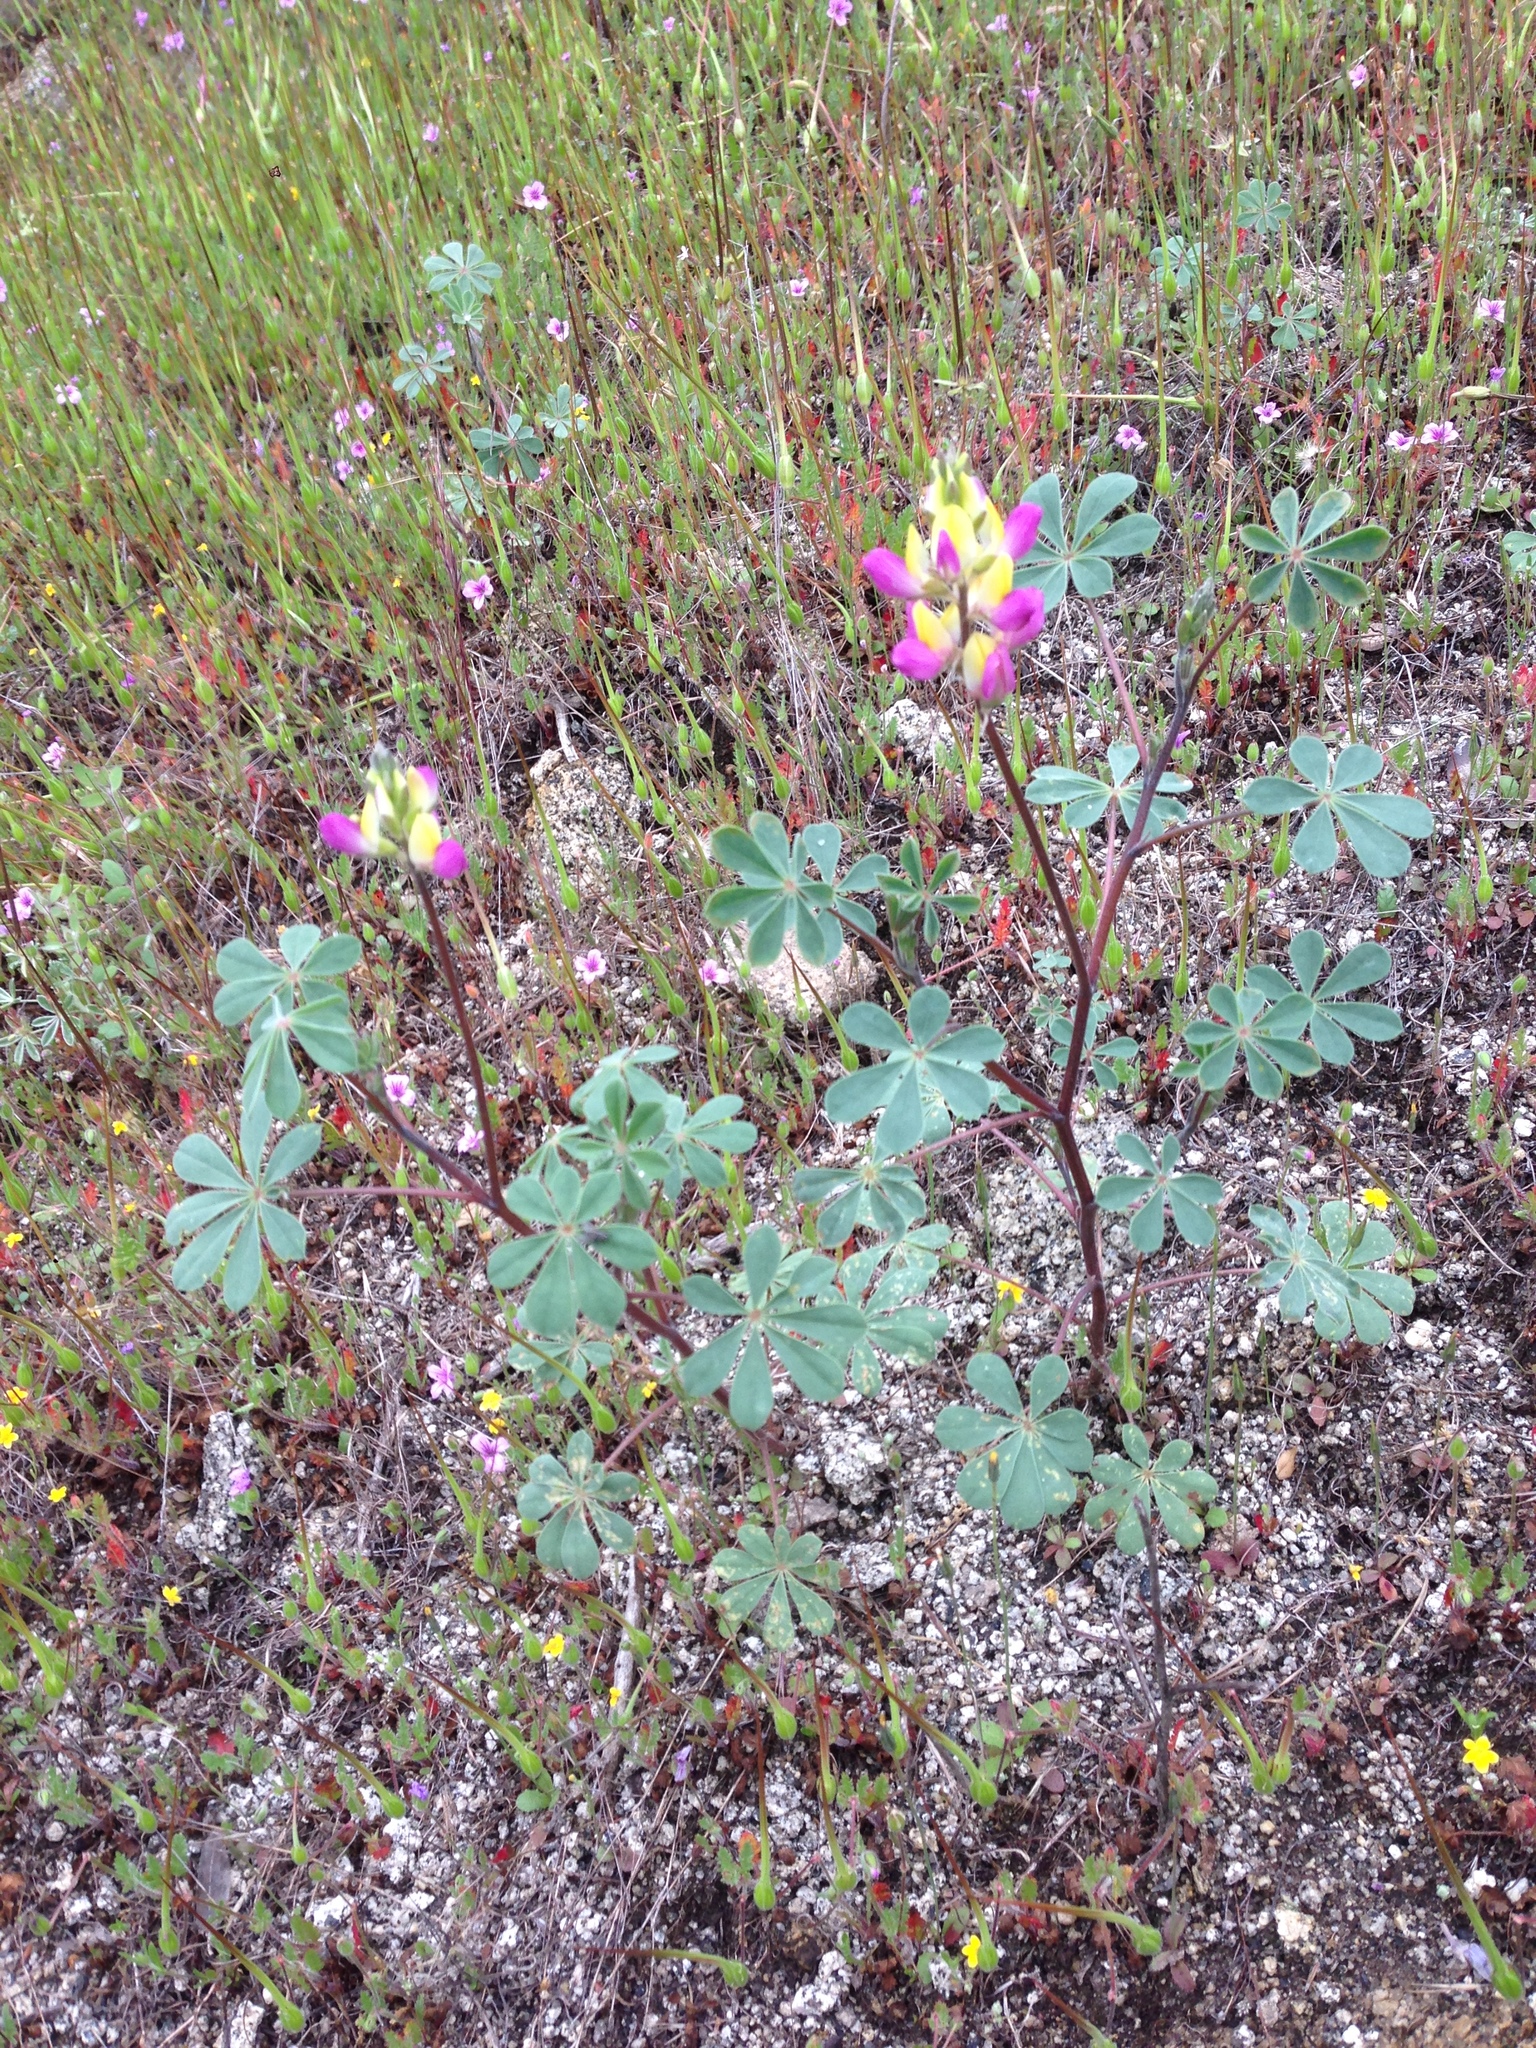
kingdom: Plantae
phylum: Tracheophyta
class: Magnoliopsida
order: Fabales
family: Fabaceae
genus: Lupinus
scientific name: Lupinus stiversii
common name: Harlequin lupine
